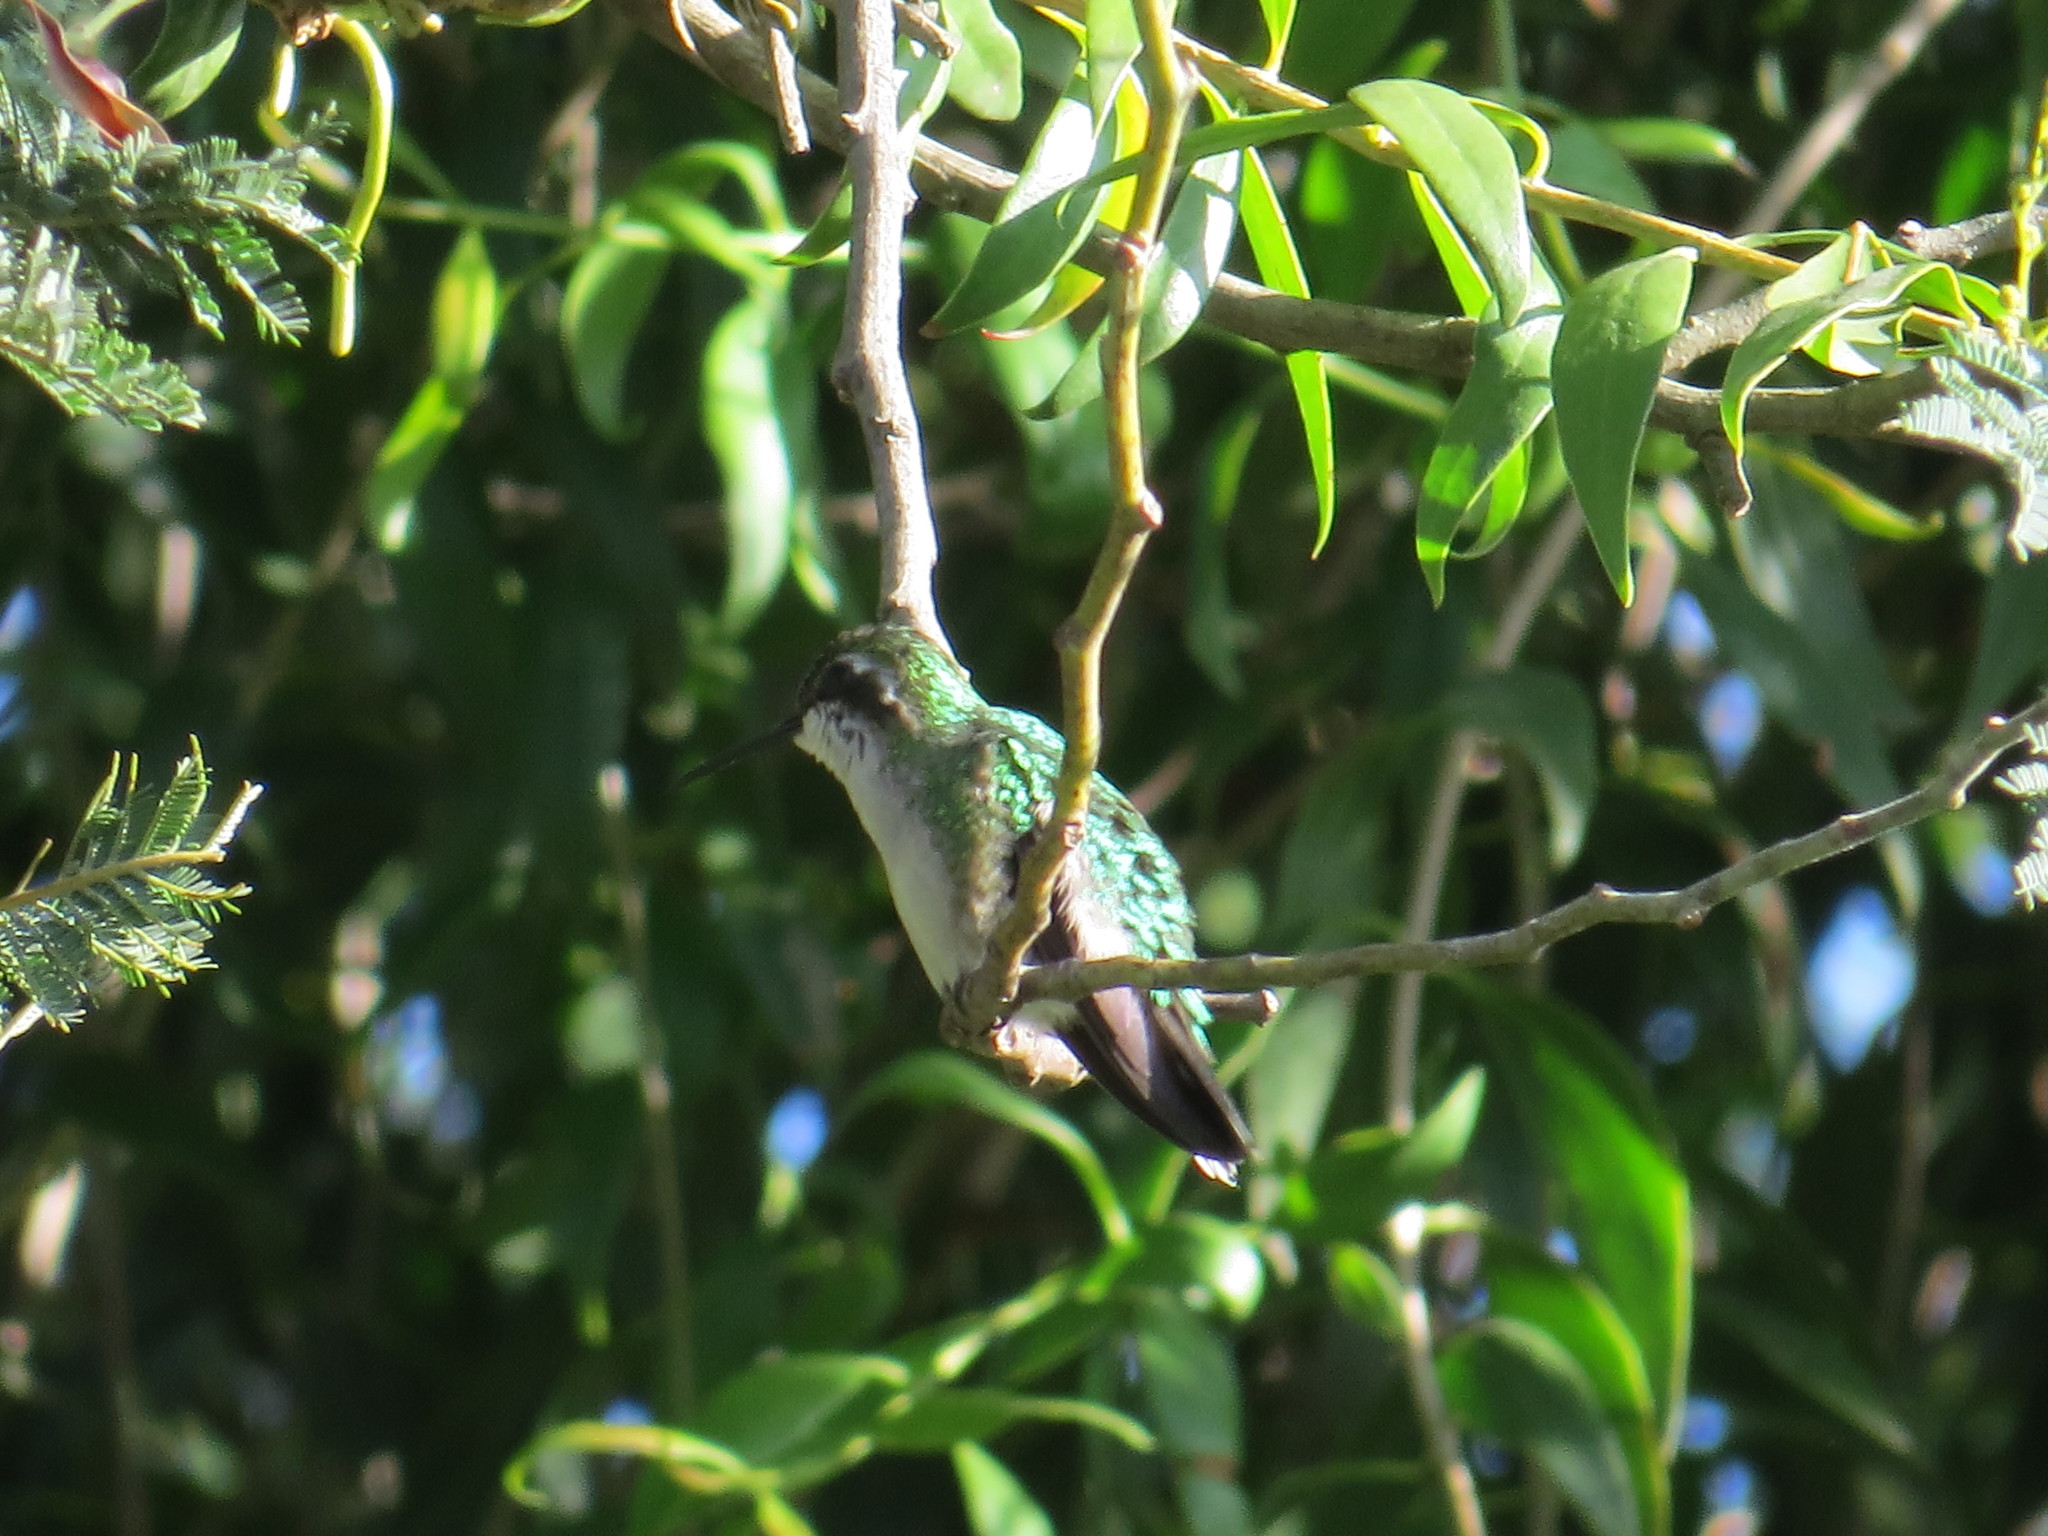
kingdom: Animalia
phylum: Chordata
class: Aves
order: Apodiformes
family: Trochilidae
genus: Chlorostilbon
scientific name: Chlorostilbon melanorhynchus
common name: Western emerald
